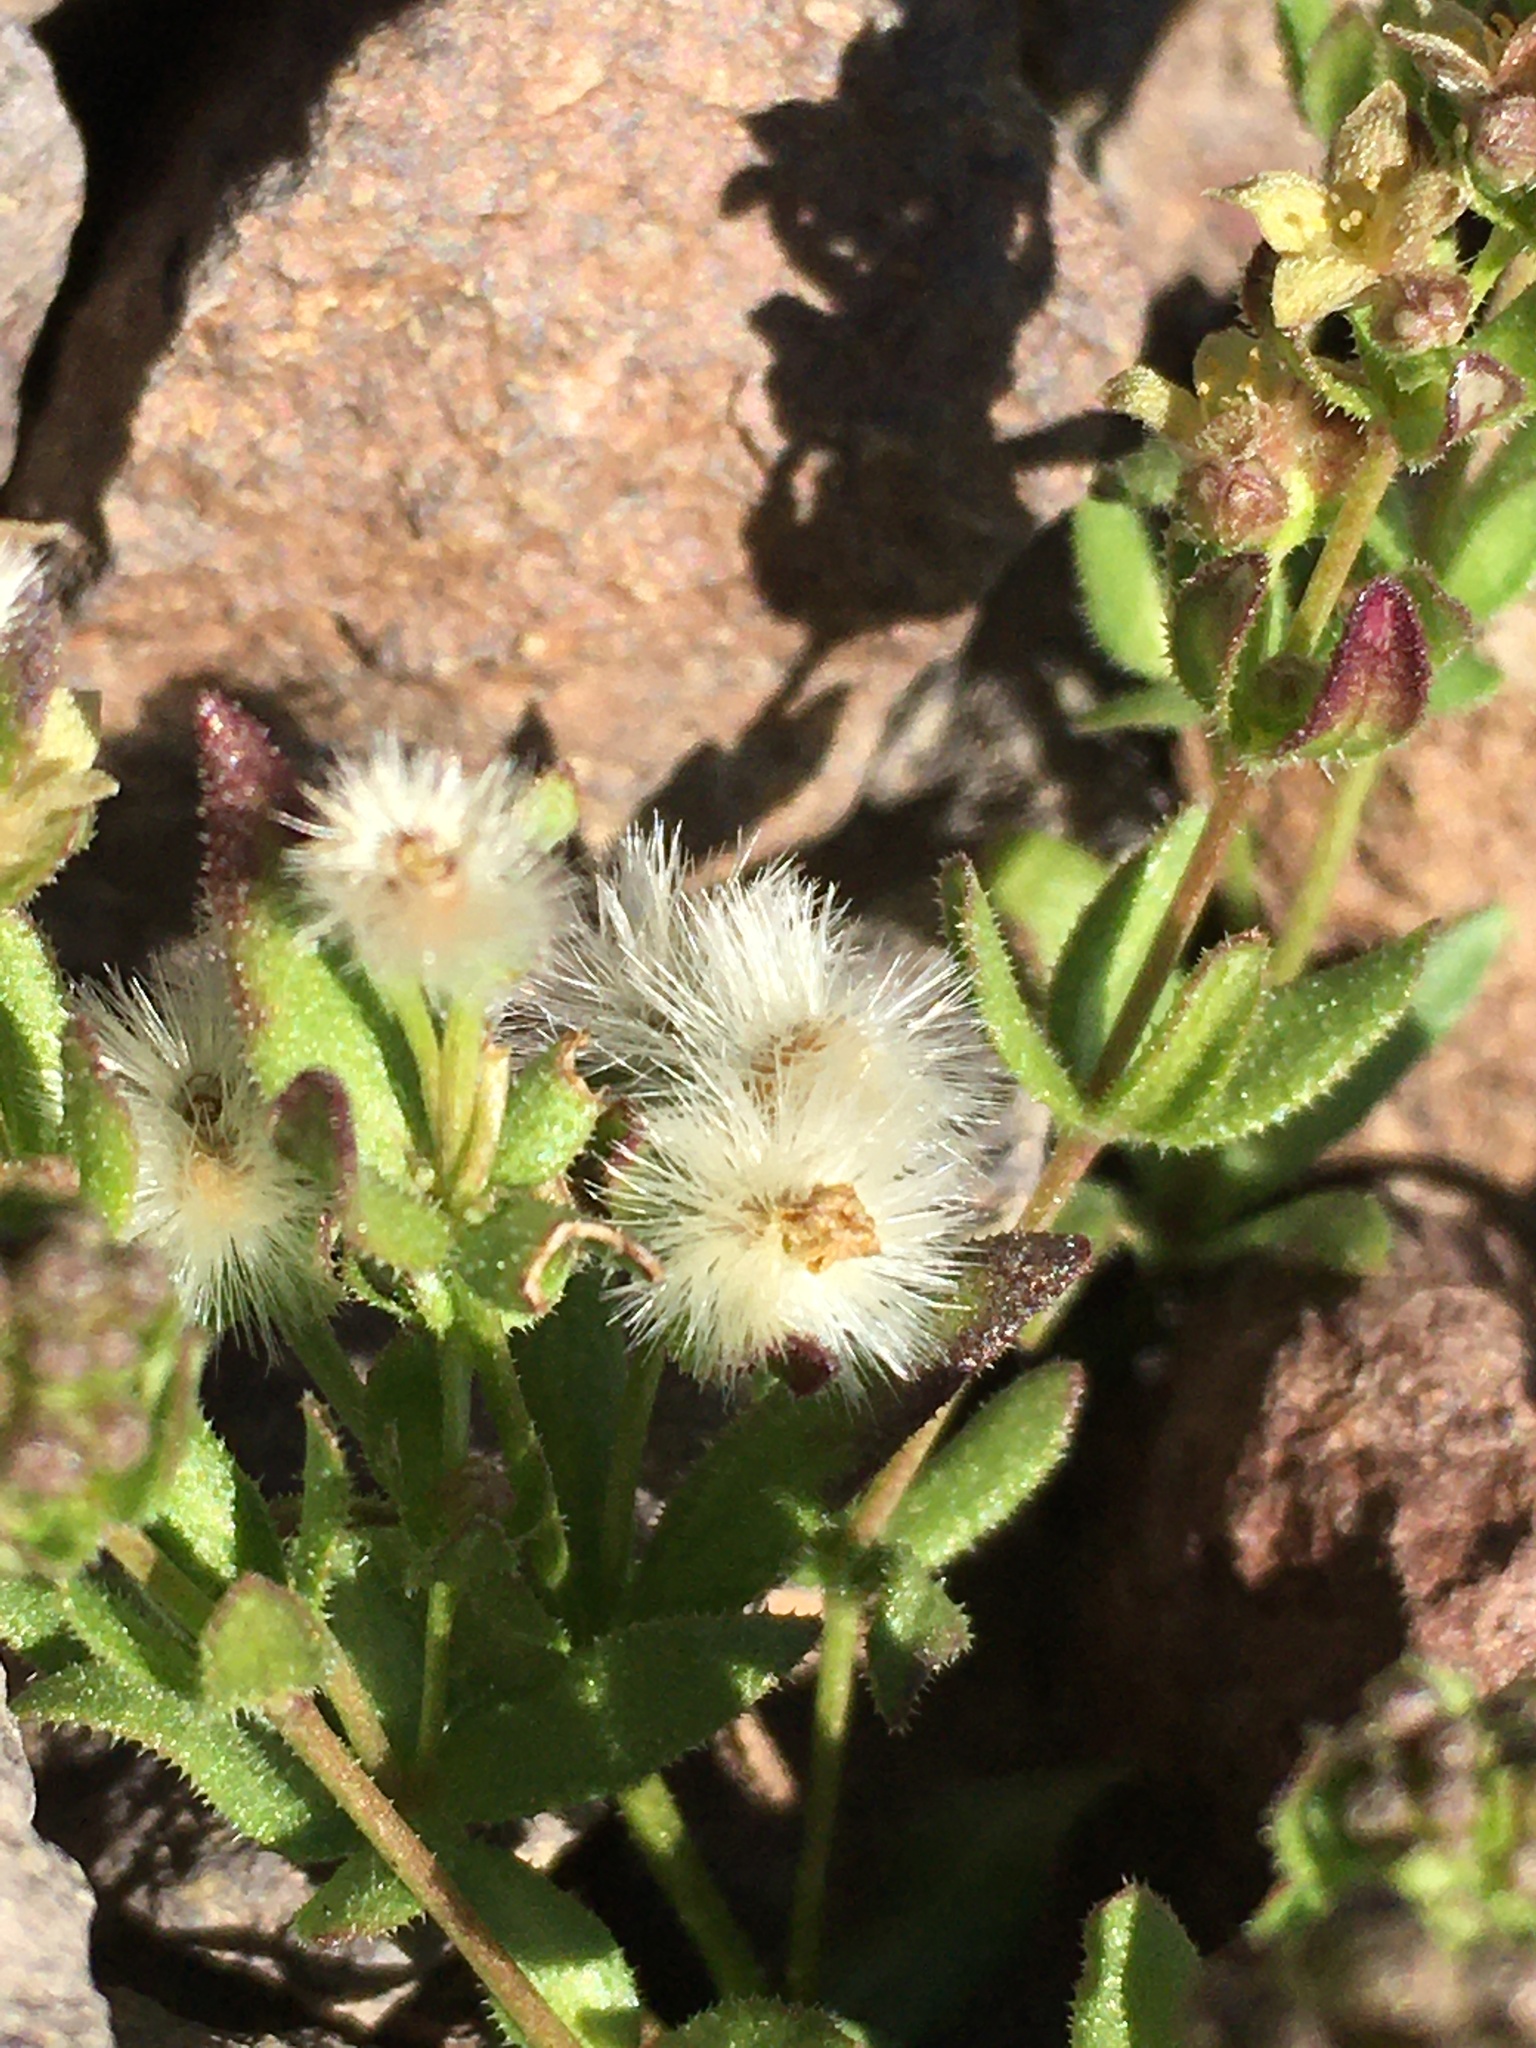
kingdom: Plantae
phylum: Tracheophyta
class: Magnoliopsida
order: Gentianales
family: Rubiaceae
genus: Galium
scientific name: Galium eriocarpum
